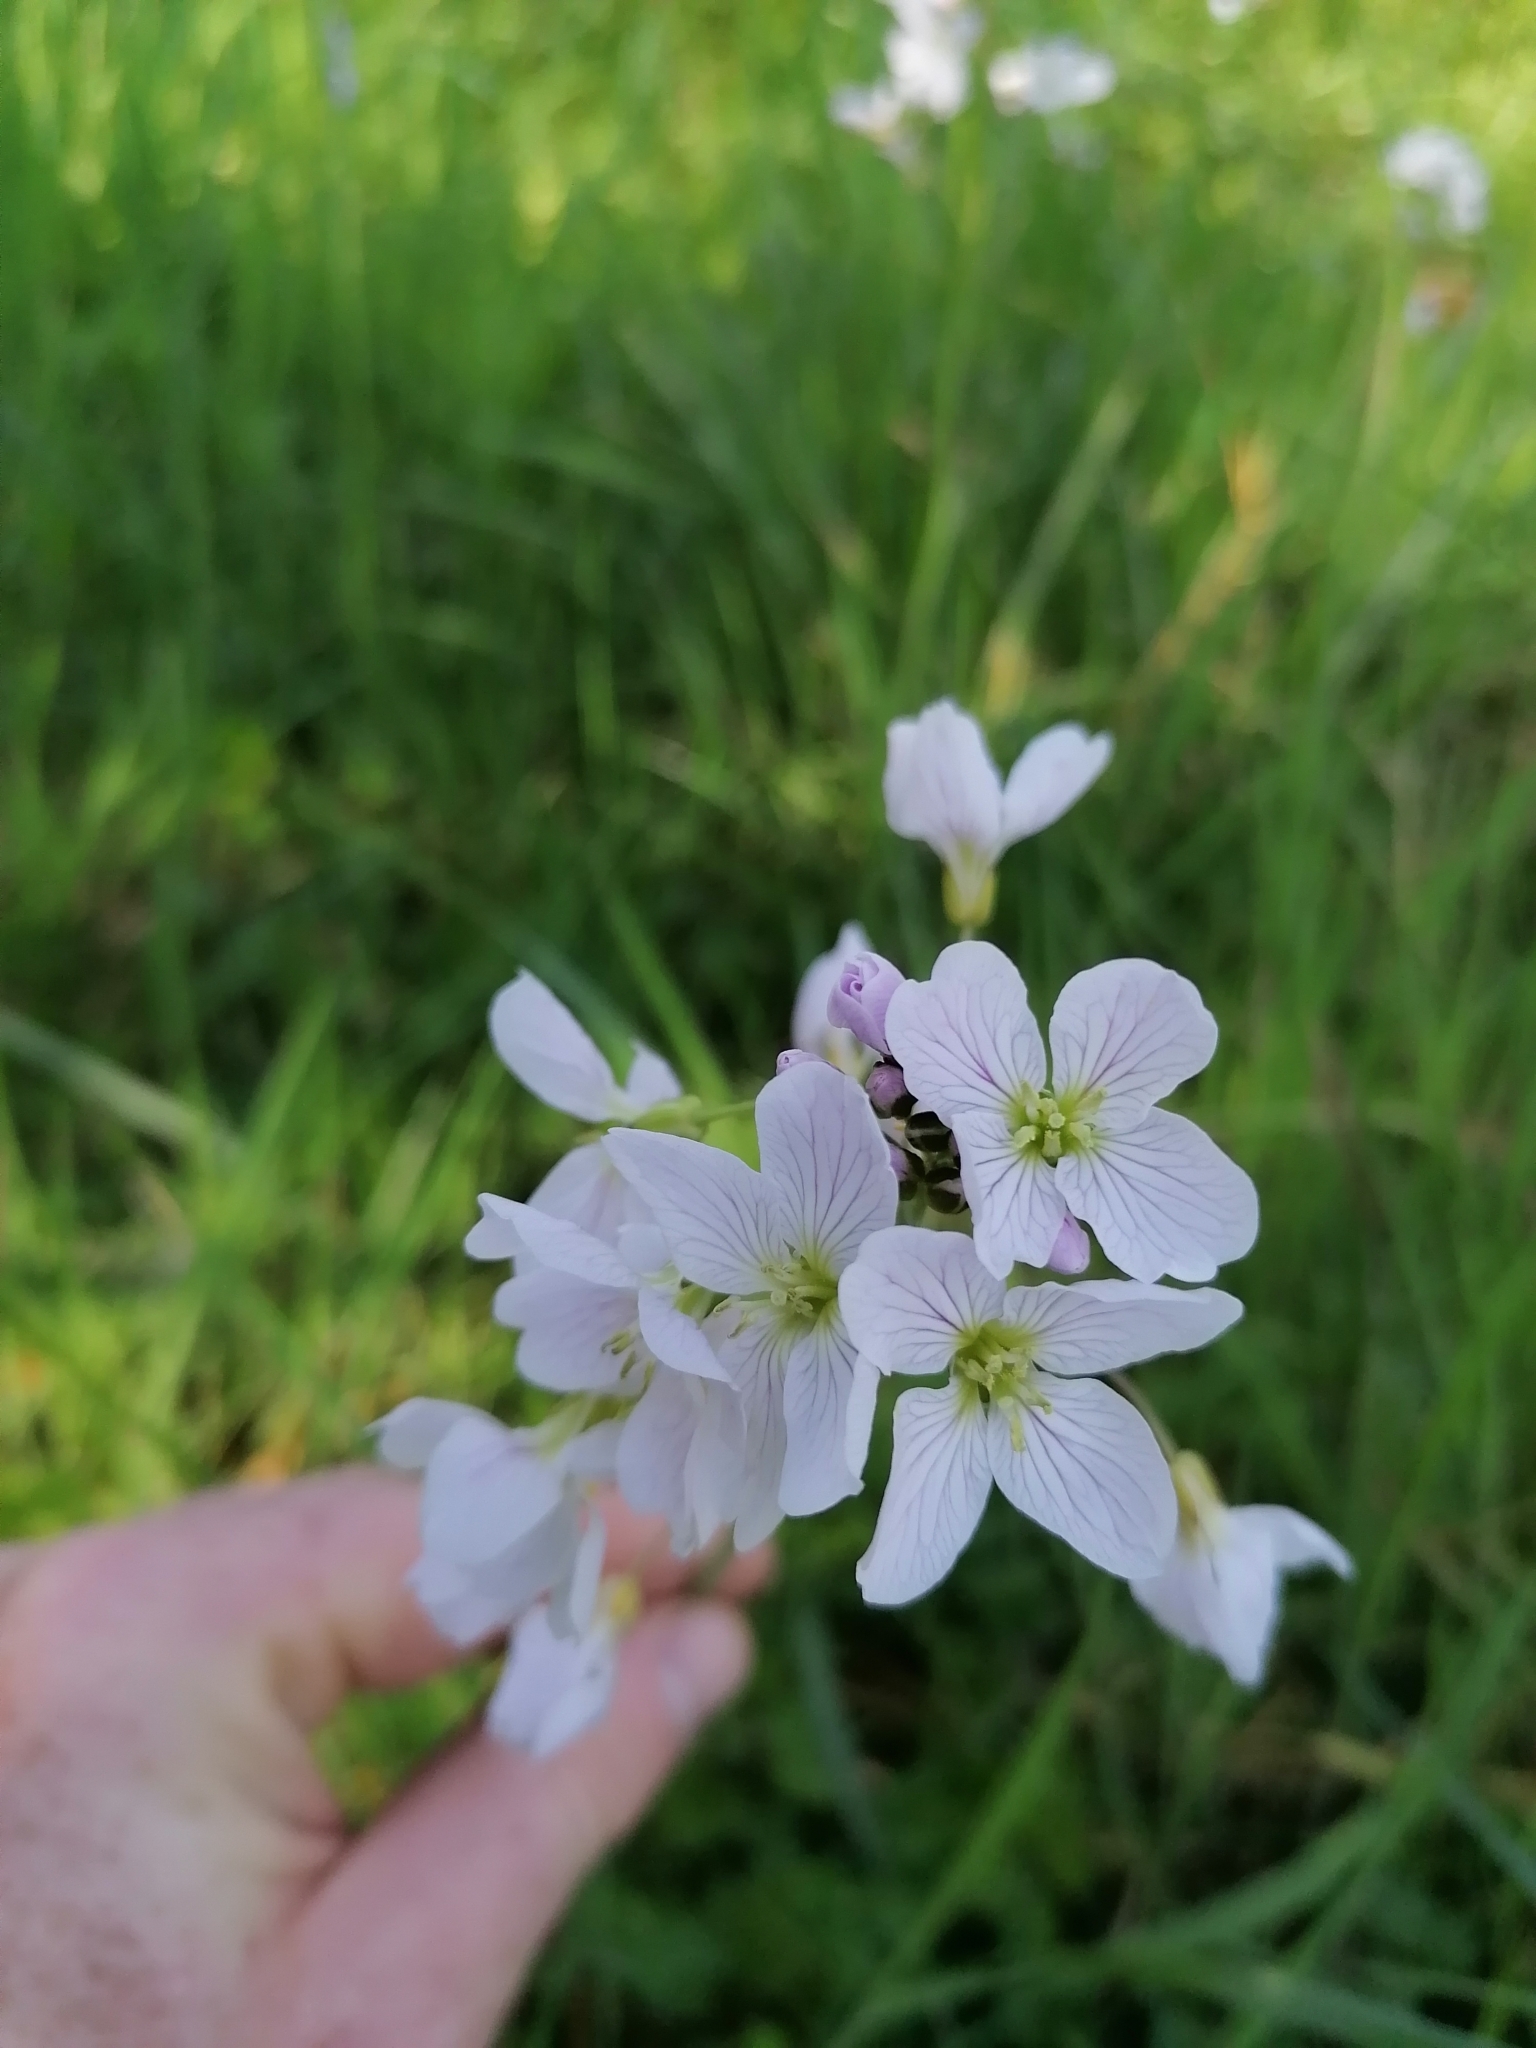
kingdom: Plantae
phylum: Tracheophyta
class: Magnoliopsida
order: Brassicales
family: Brassicaceae
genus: Cardamine
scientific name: Cardamine pratensis
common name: Cuckoo flower
